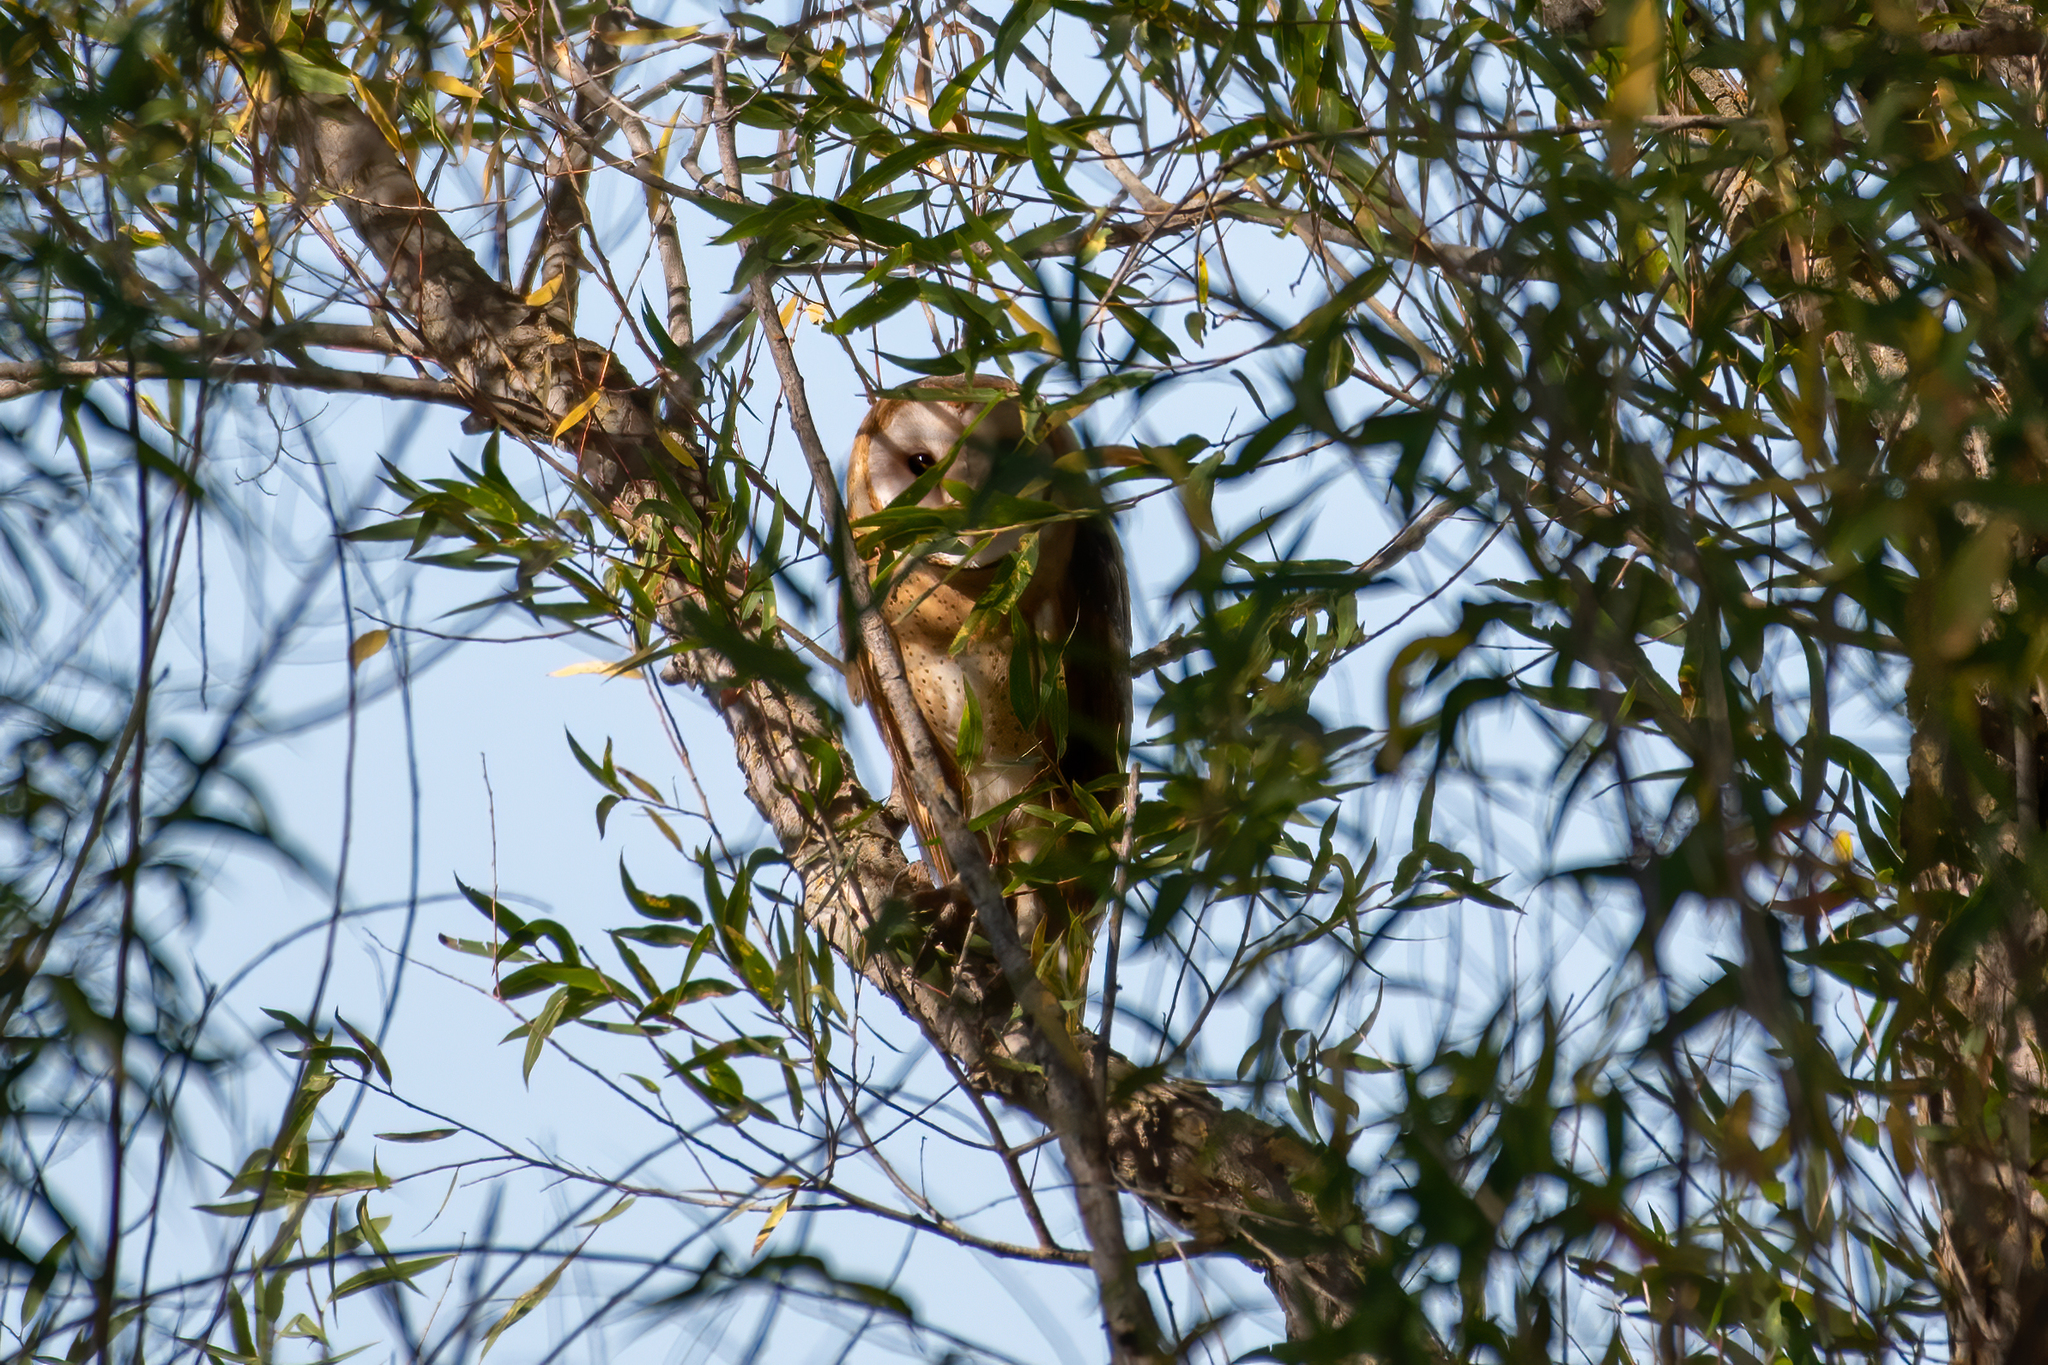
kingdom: Animalia
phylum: Chordata
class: Aves
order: Strigiformes
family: Tytonidae
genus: Tyto
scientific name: Tyto alba
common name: Barn owl
